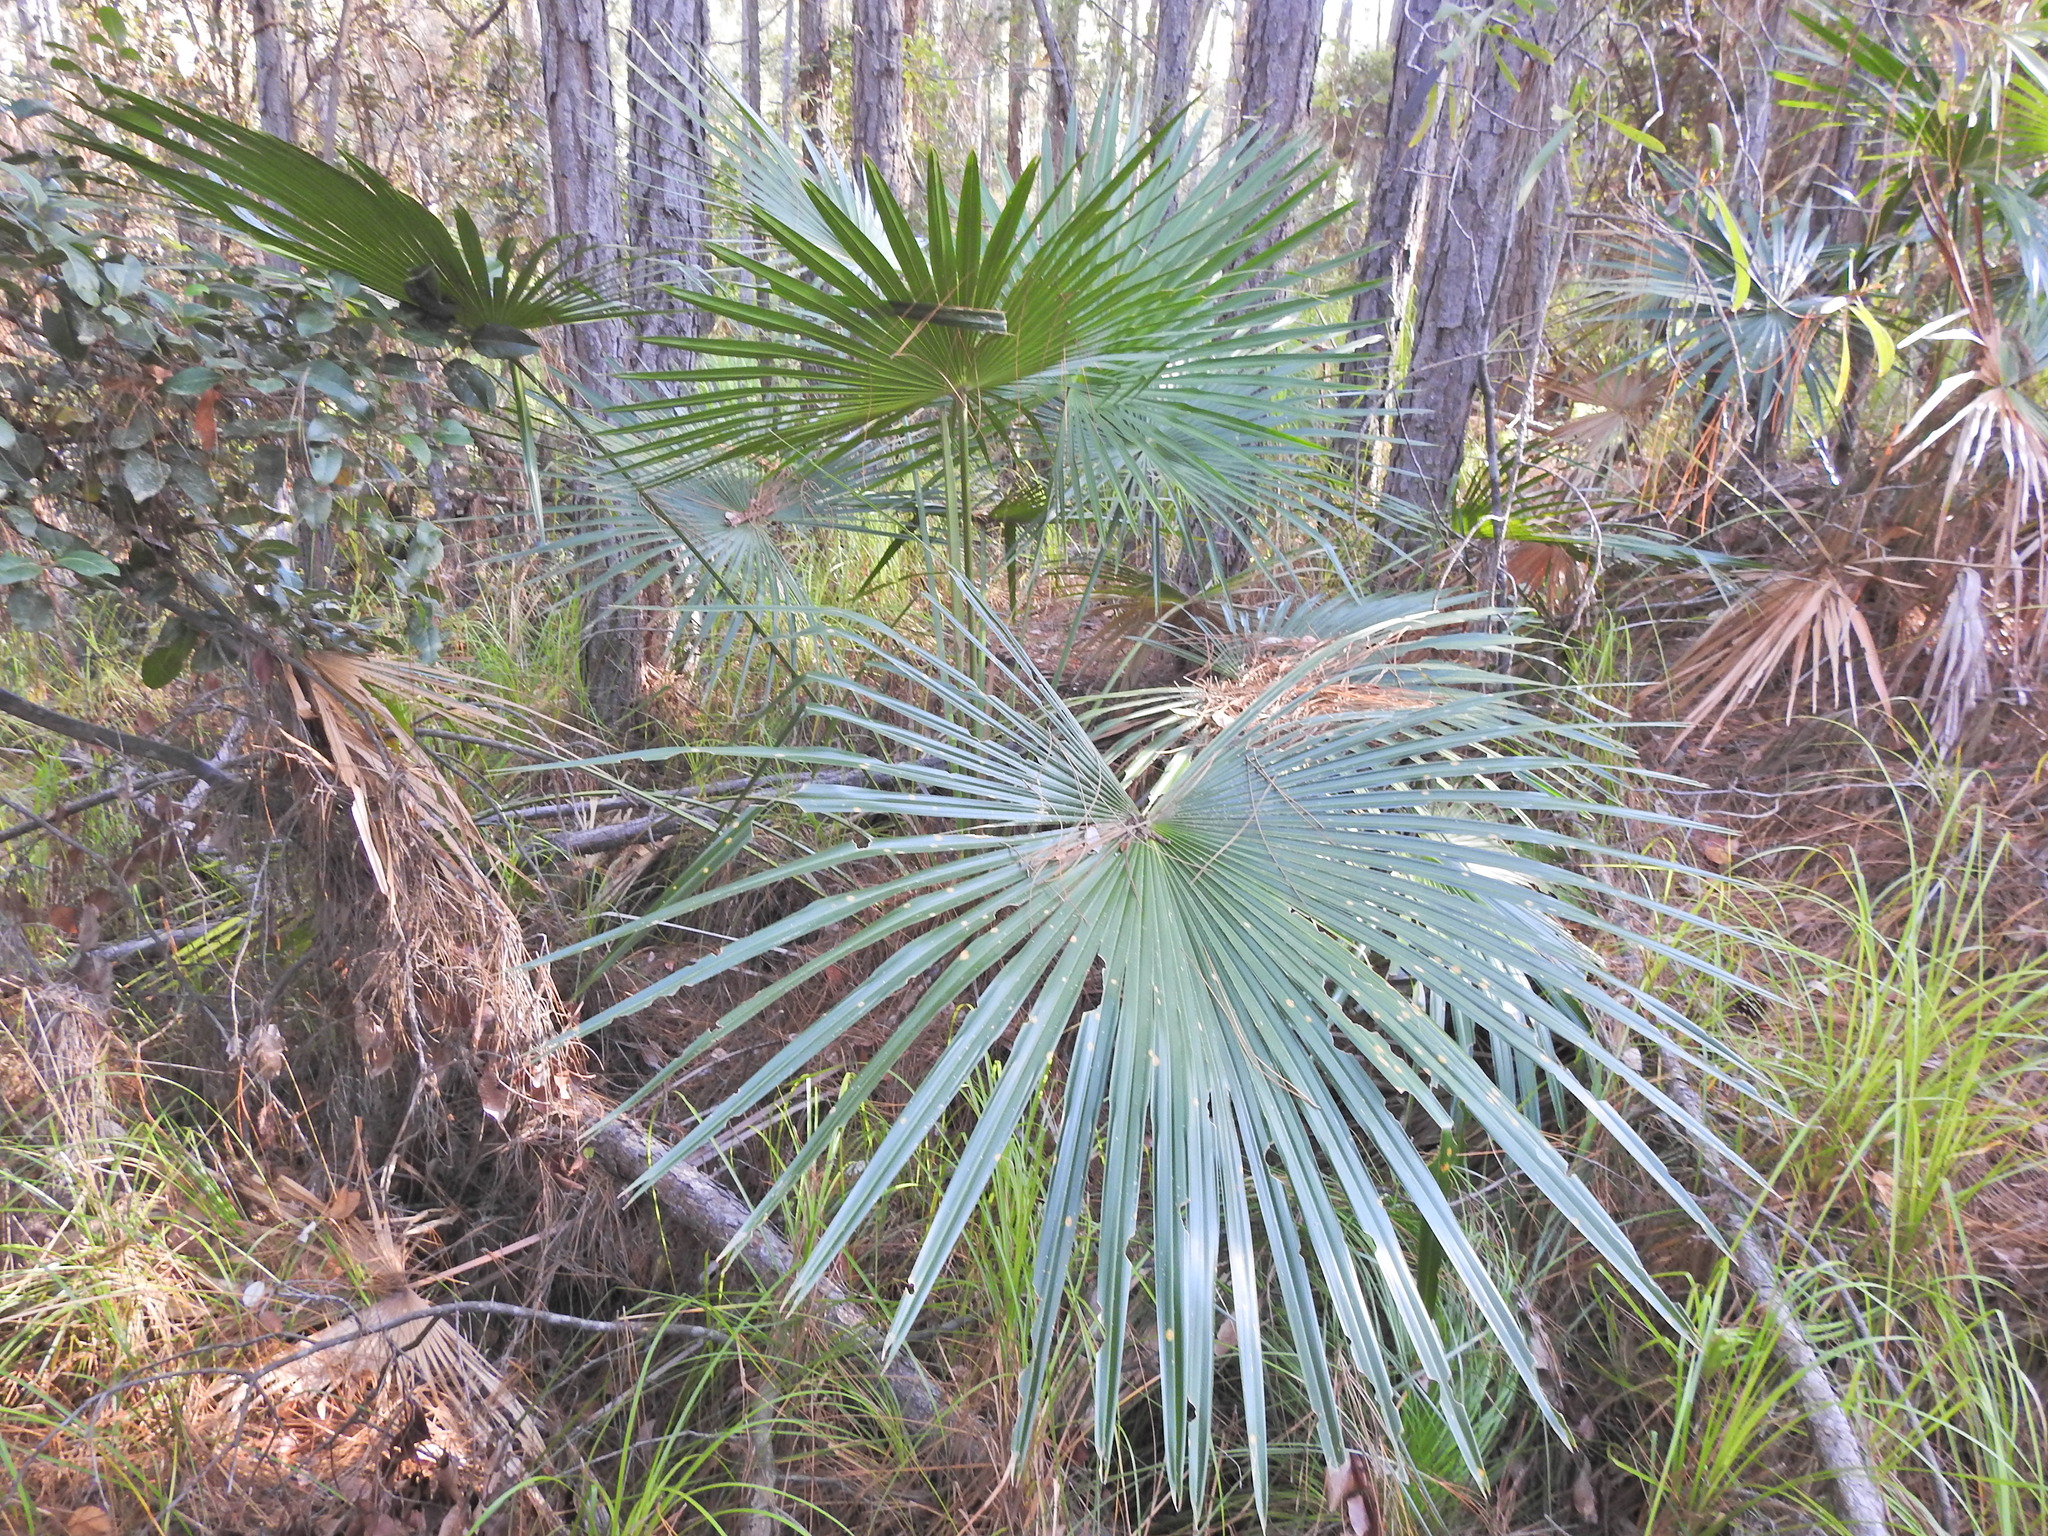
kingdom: Plantae
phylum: Tracheophyta
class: Liliopsida
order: Arecales
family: Arecaceae
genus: Livistona
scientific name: Livistona australis
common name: Cabbage fan palm
